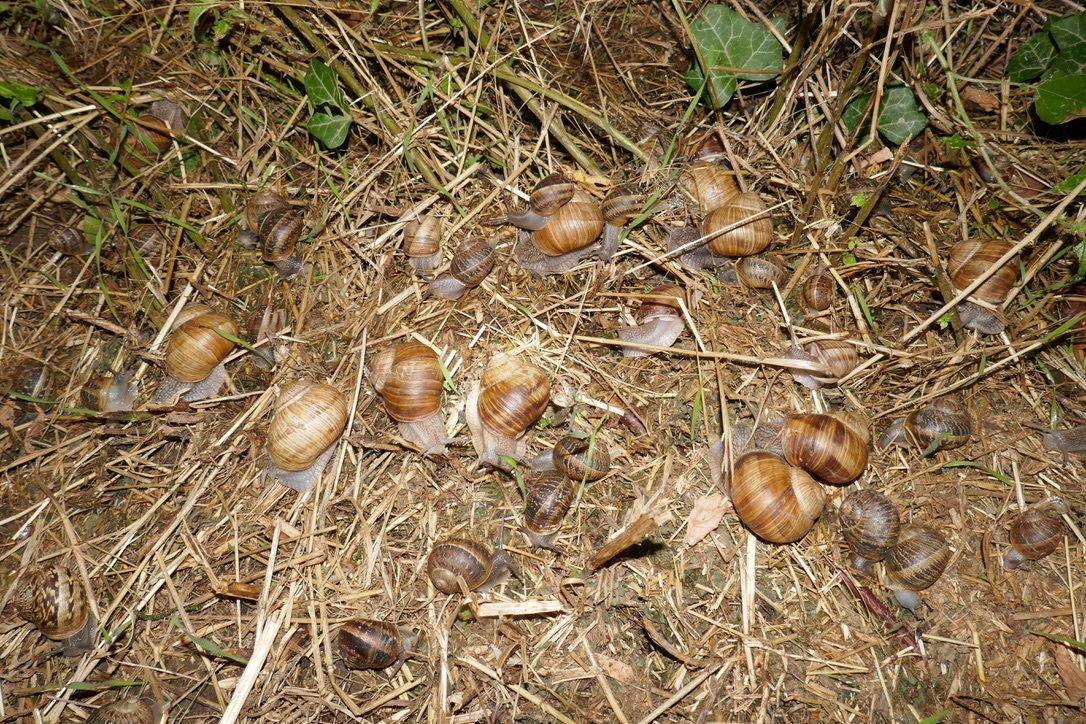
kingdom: Animalia
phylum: Mollusca
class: Gastropoda
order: Stylommatophora
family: Helicidae
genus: Helix
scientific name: Helix pomatia
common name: Roman snail
